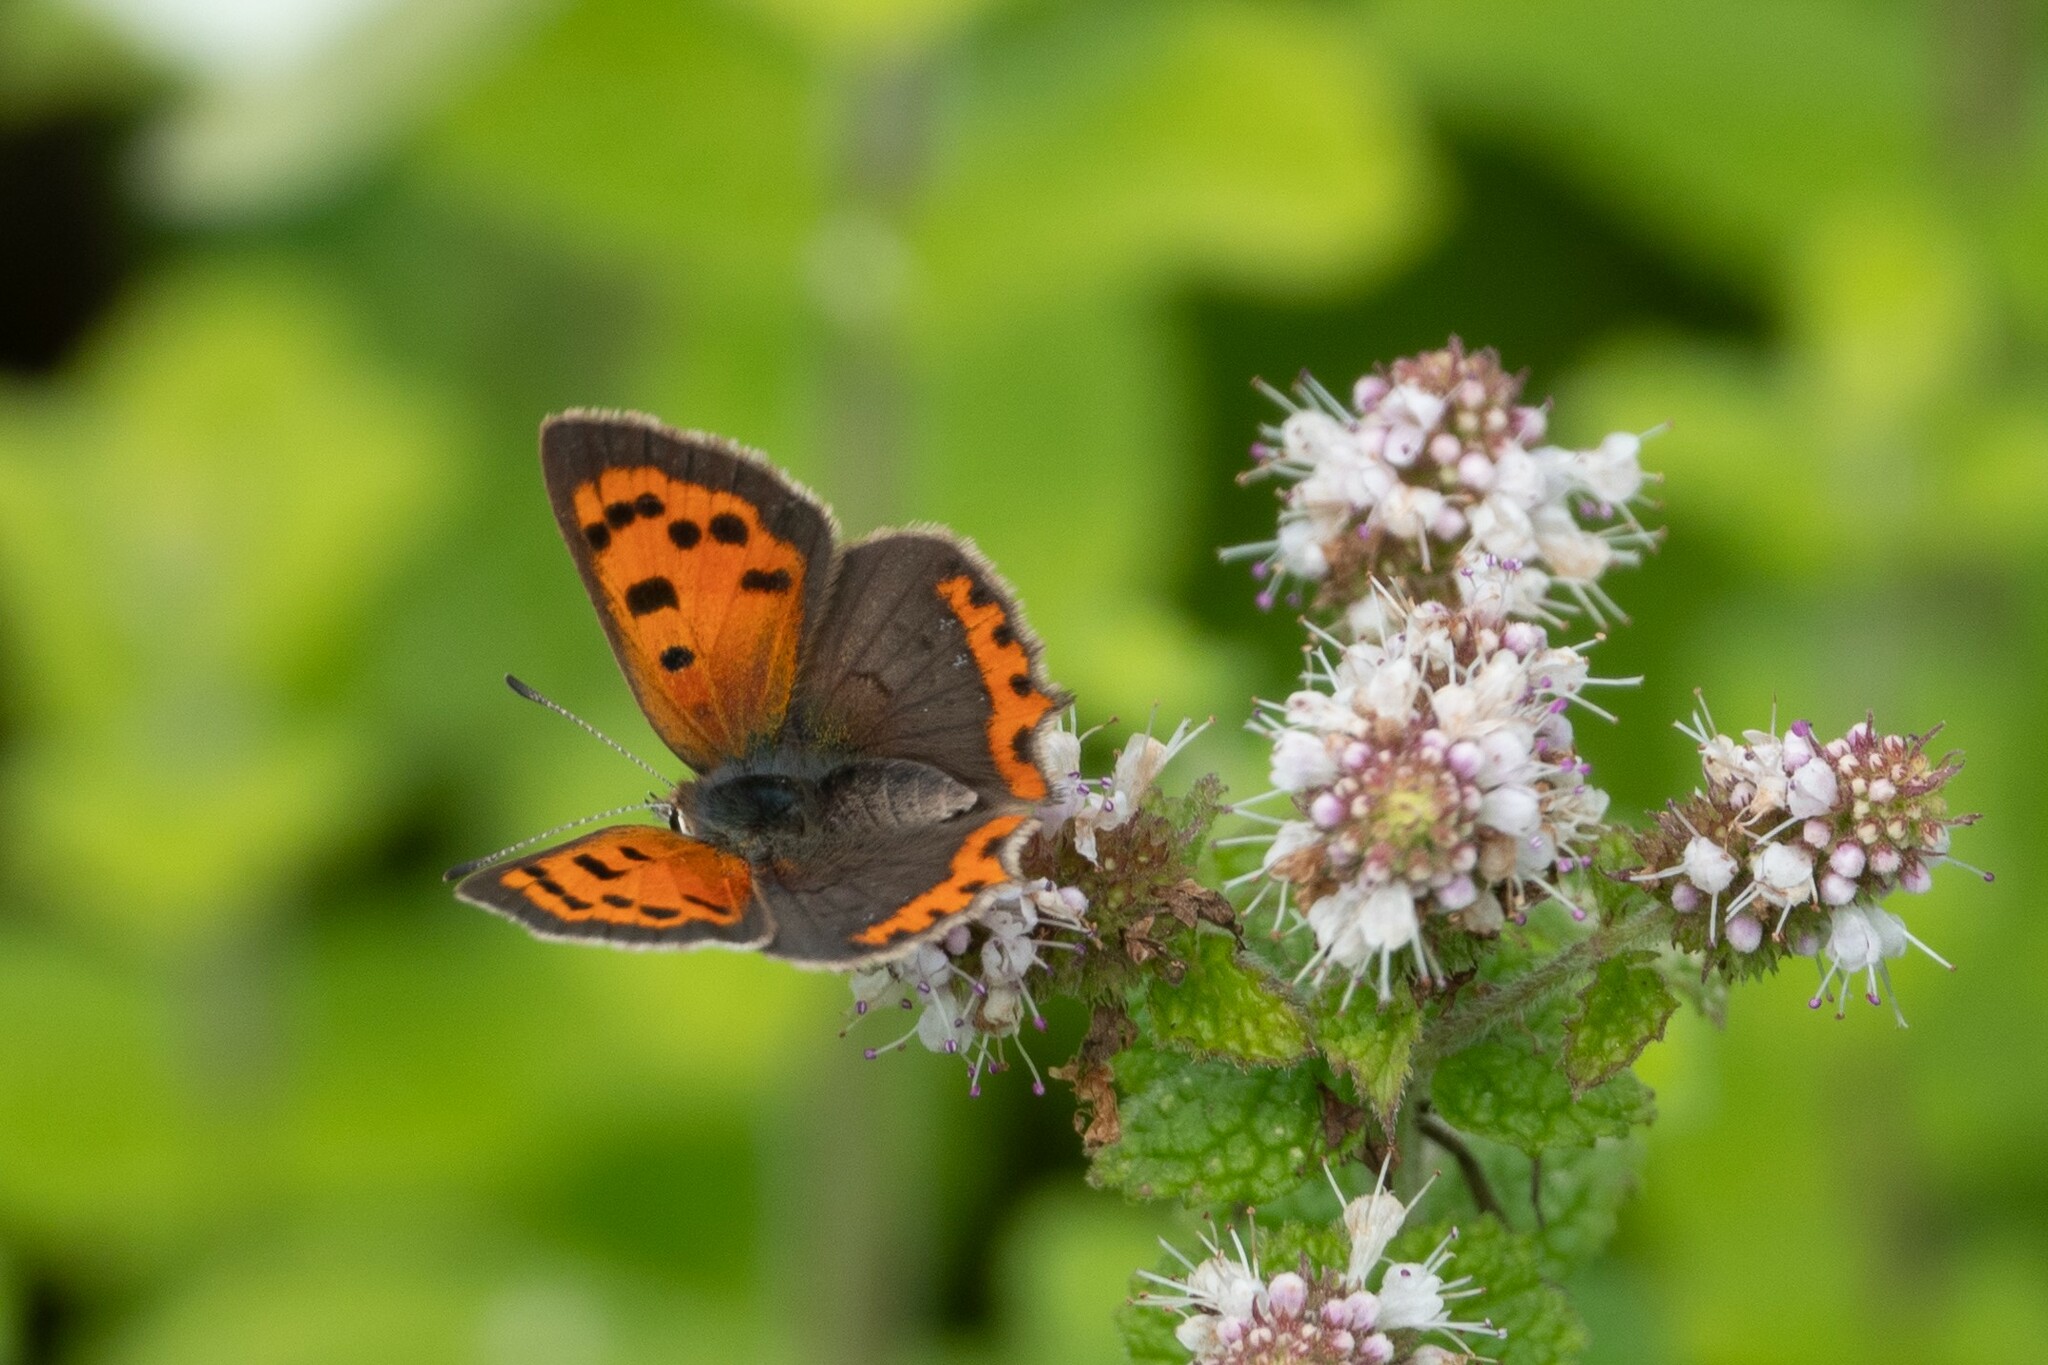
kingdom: Animalia
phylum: Arthropoda
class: Insecta
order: Lepidoptera
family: Lycaenidae
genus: Lycaena
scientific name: Lycaena phlaeas
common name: Small copper
